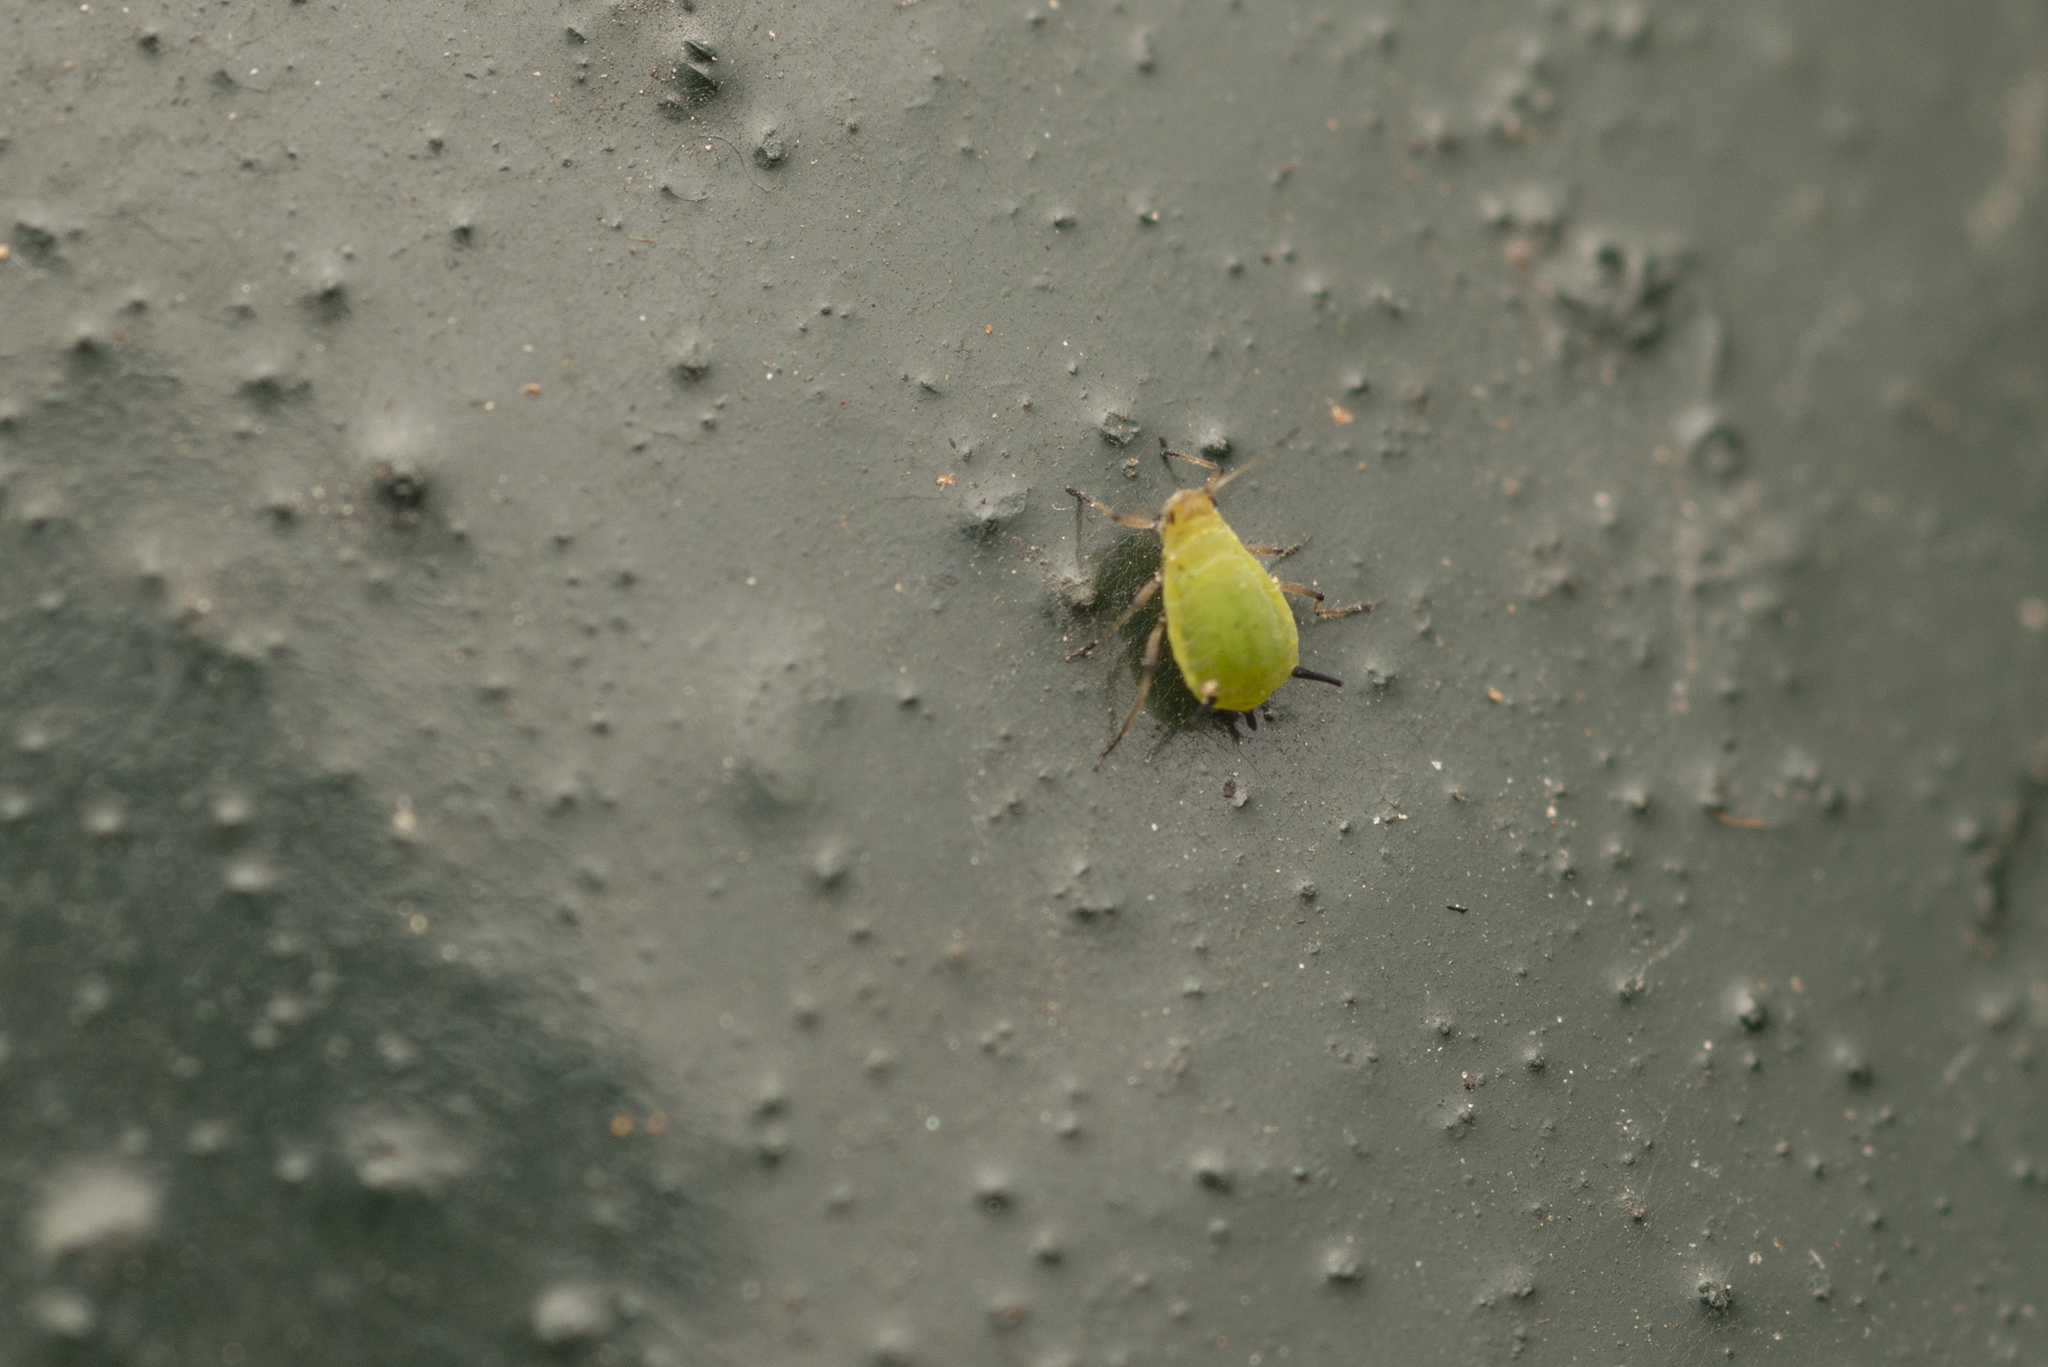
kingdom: Animalia
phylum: Arthropoda
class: Insecta
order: Hemiptera
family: Aphididae
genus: Aphis
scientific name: Aphis spiraecola
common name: Spirea aphid
